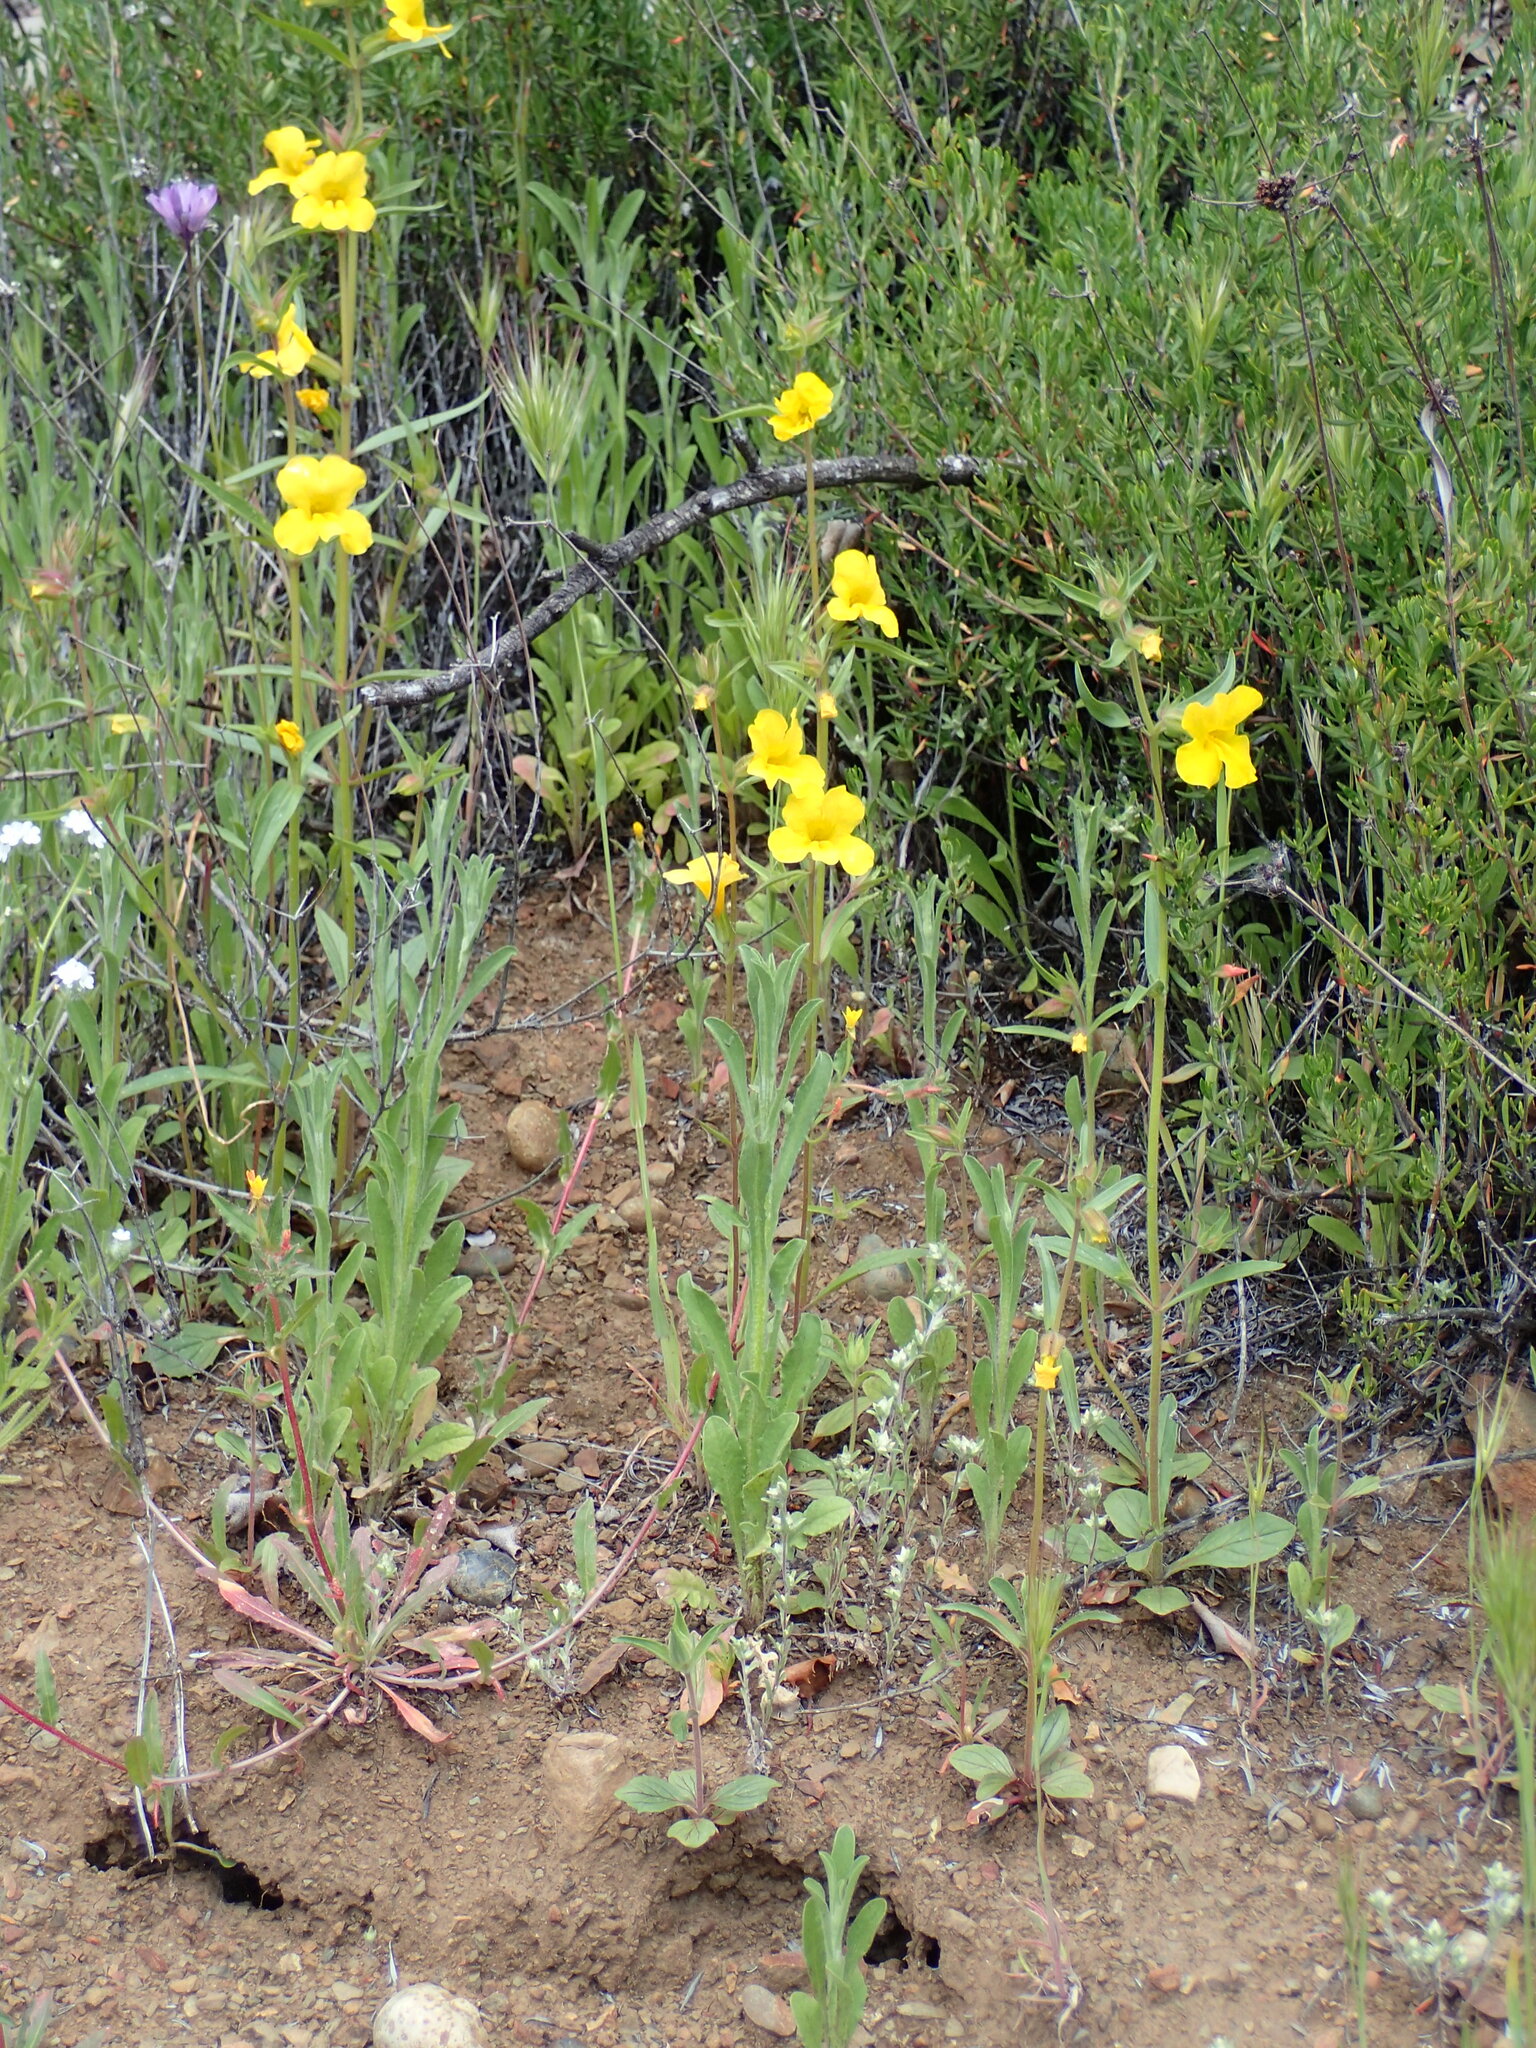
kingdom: Plantae
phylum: Tracheophyta
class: Magnoliopsida
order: Lamiales
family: Phrymaceae
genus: Diplacus
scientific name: Diplacus brevipes
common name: Wide-throat yellow monkey-flower
